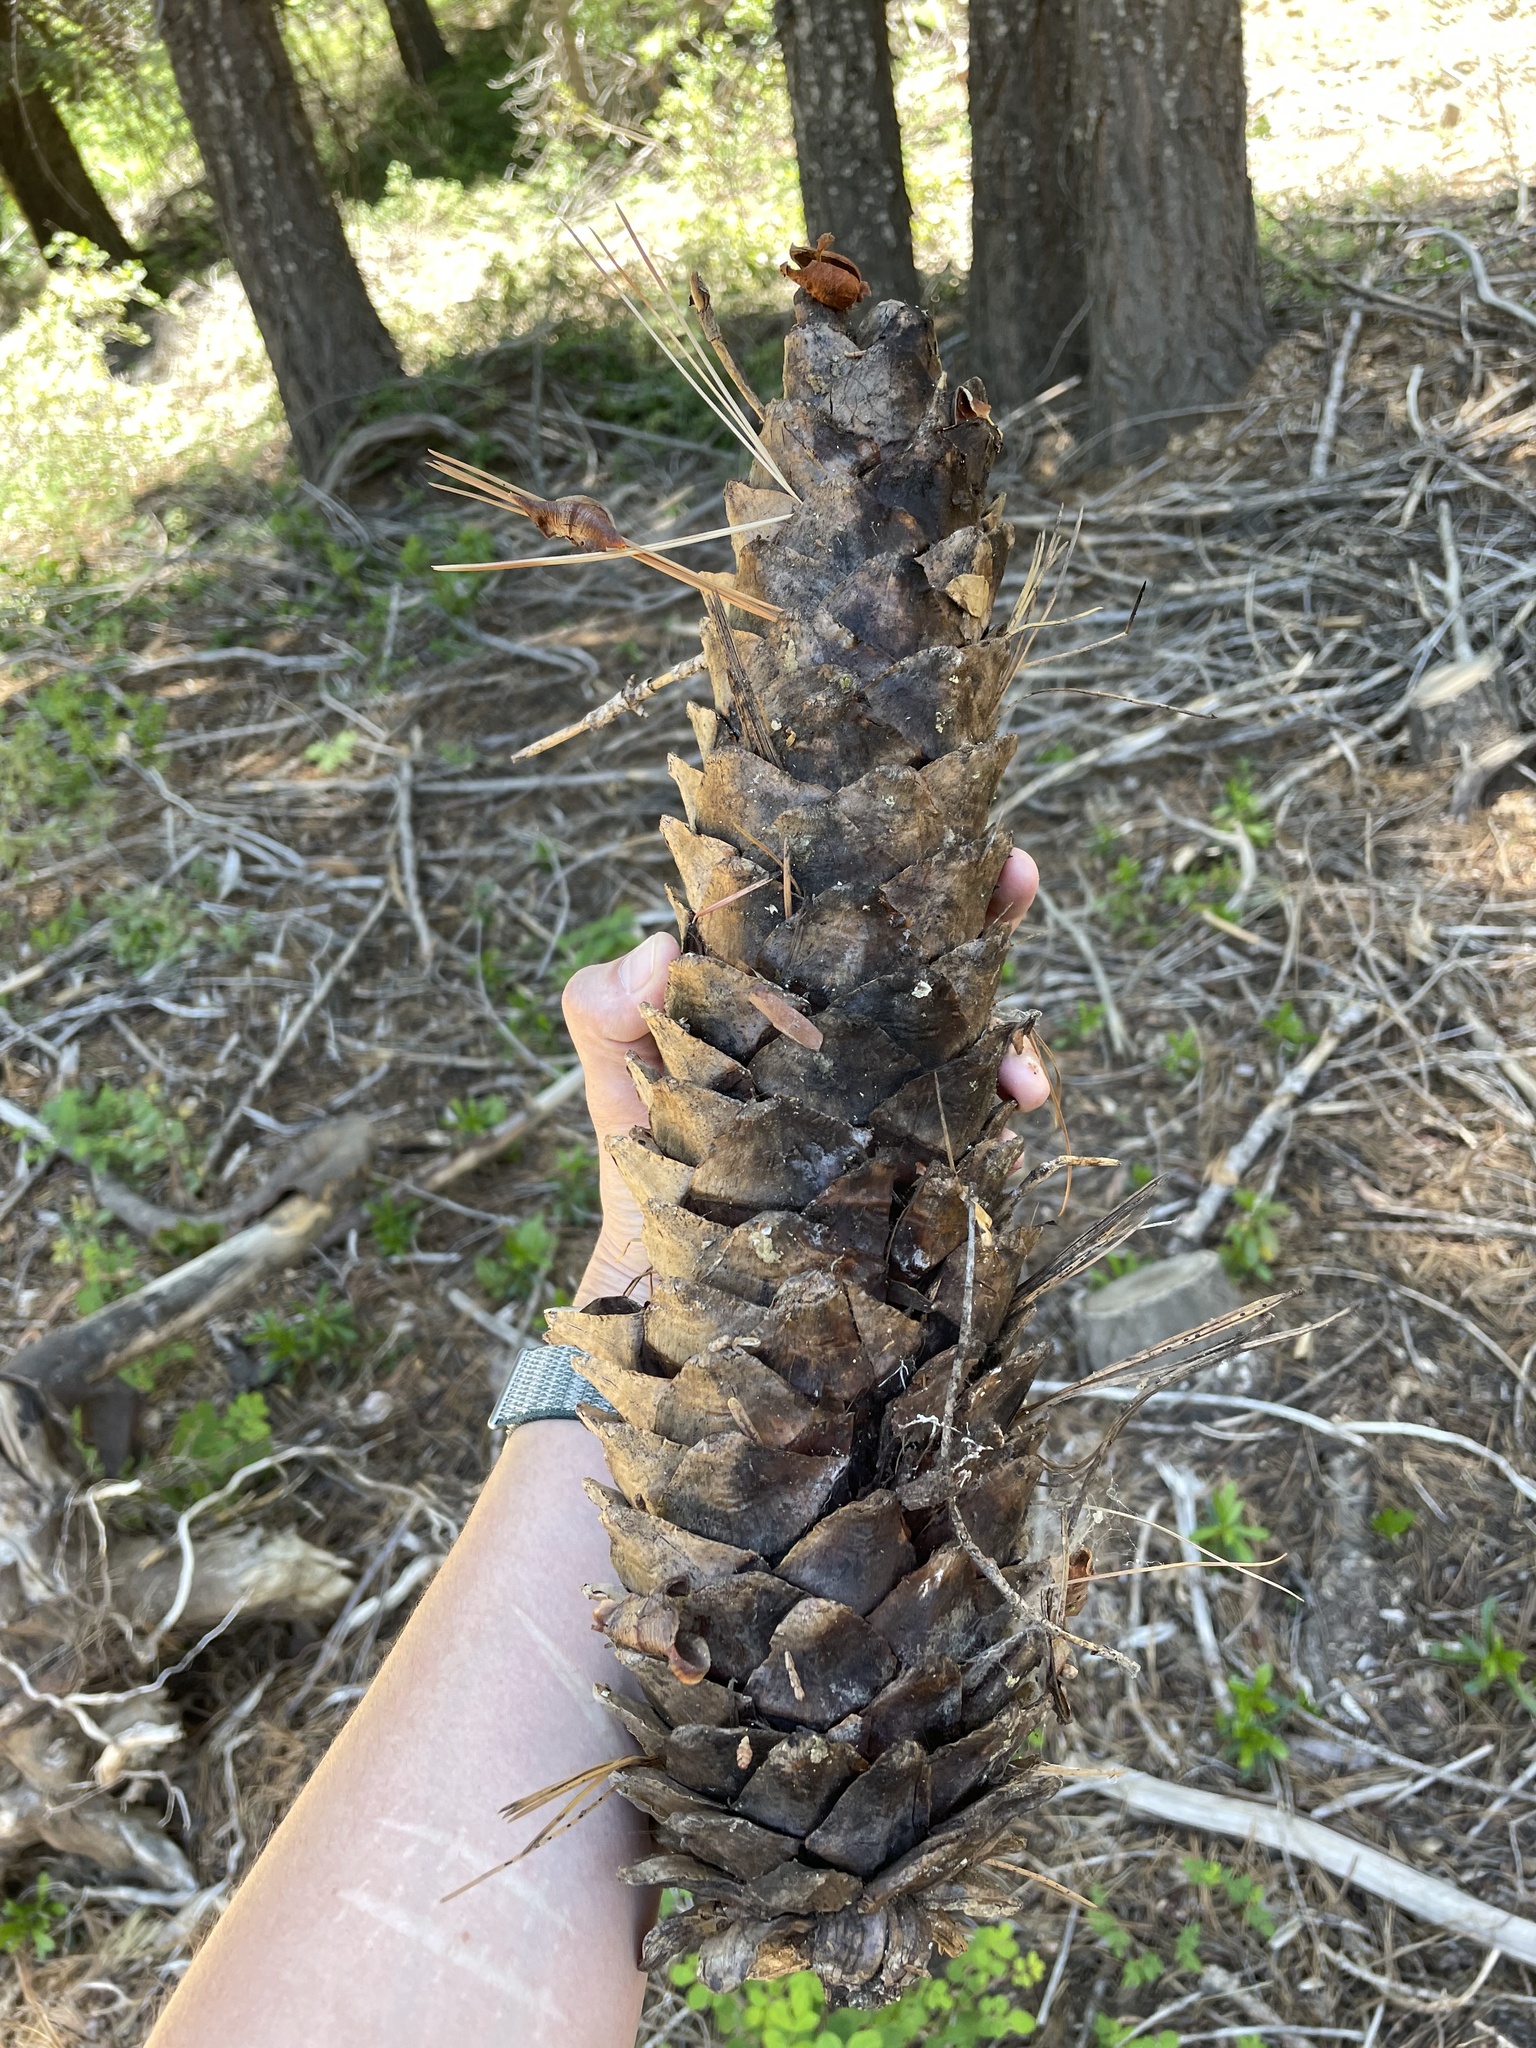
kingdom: Plantae
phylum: Tracheophyta
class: Pinopsida
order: Pinales
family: Pinaceae
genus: Pinus
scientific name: Pinus lambertiana
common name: Sugar pine
